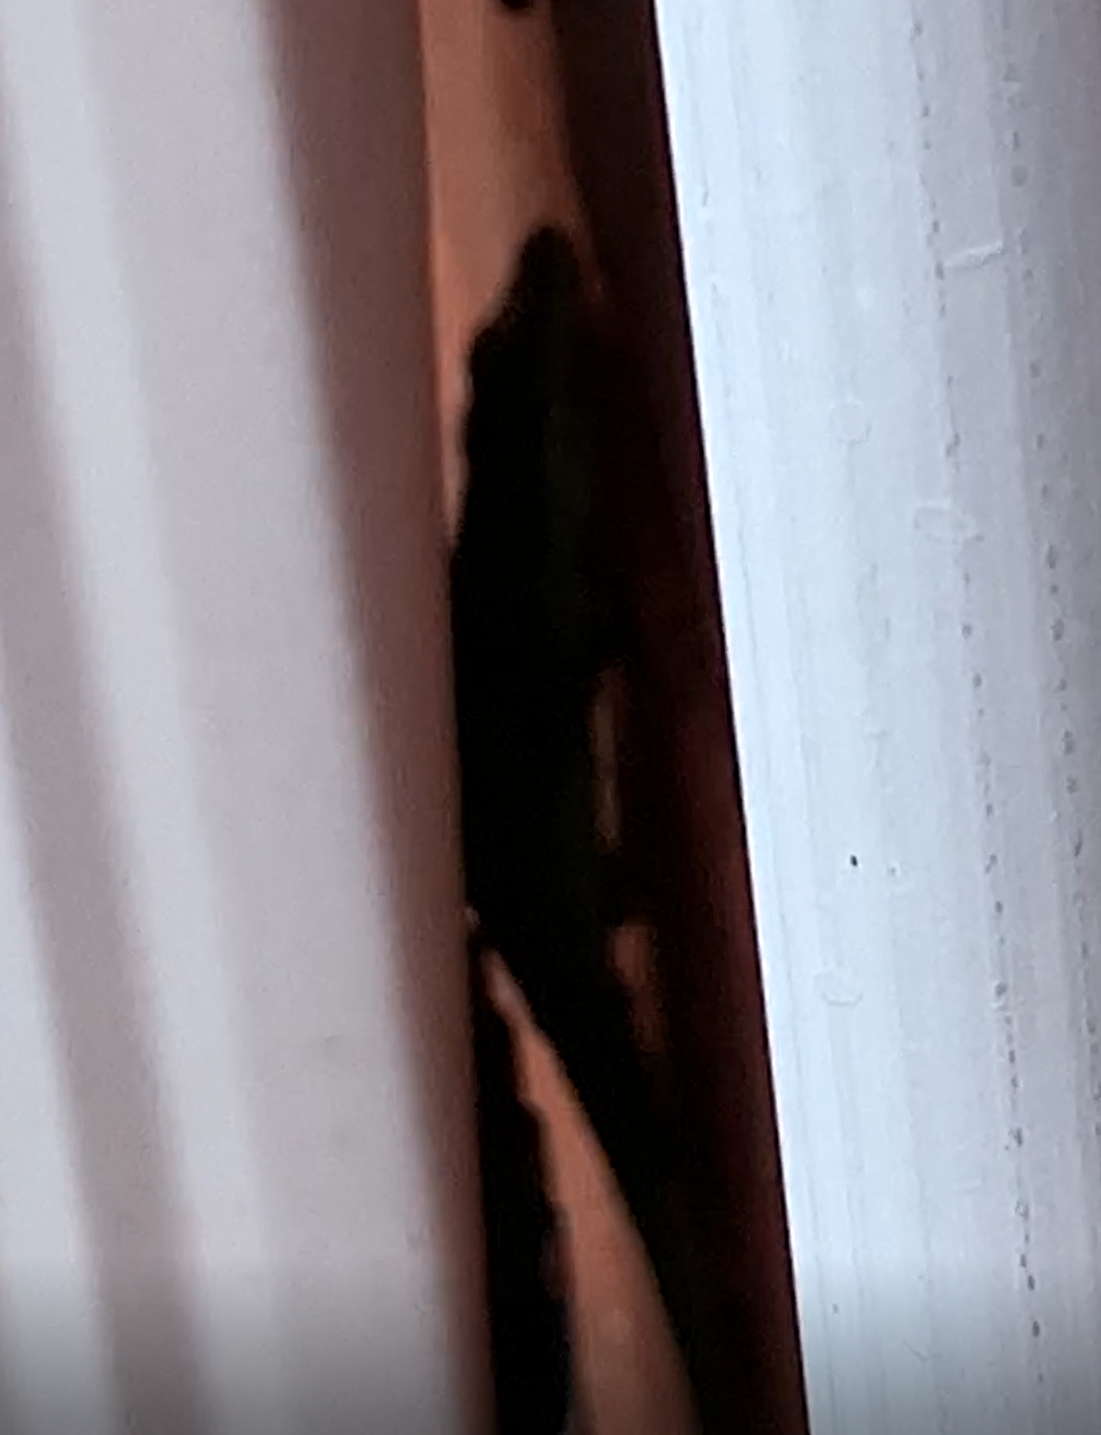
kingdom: Animalia
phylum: Chordata
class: Squamata
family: Dactyloidae
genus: Anolis
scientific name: Anolis carolinensis
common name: Green anole
